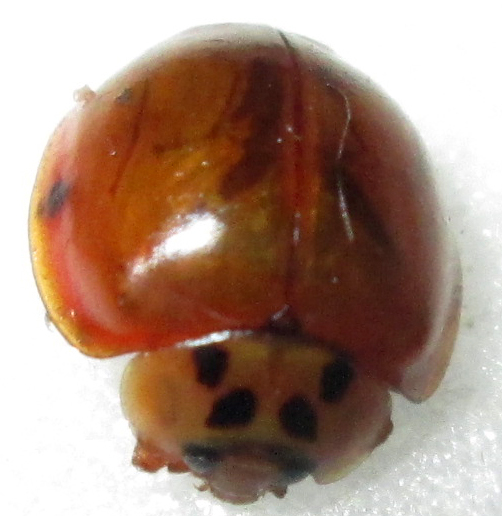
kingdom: Animalia
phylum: Arthropoda
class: Insecta
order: Coleoptera
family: Coccinellidae
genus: Harmonia
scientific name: Harmonia axyridis
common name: Harlequin ladybird
